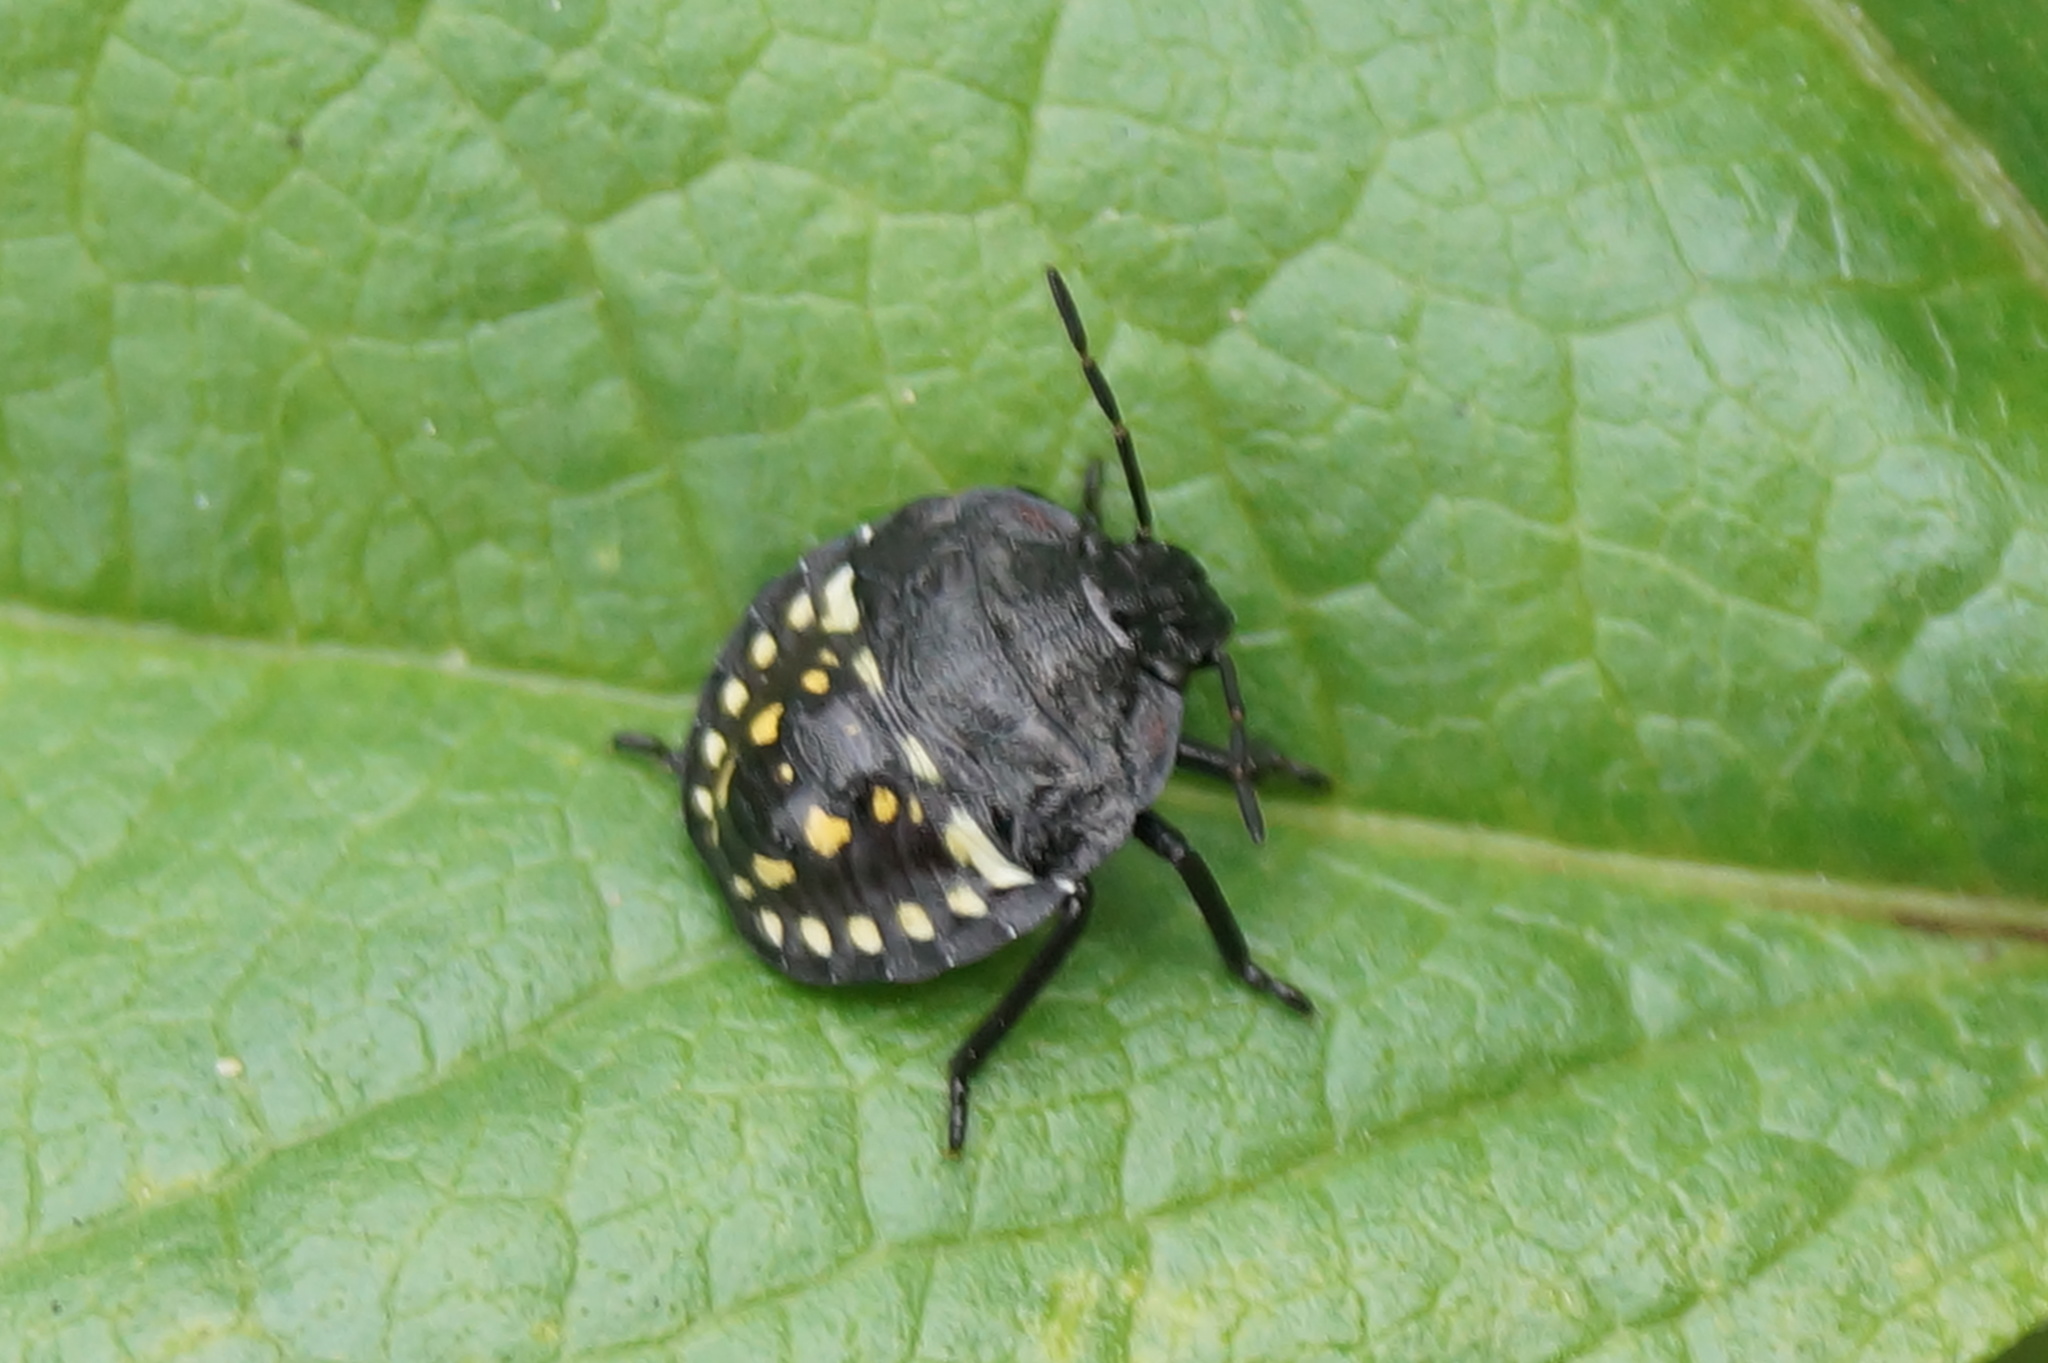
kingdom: Animalia
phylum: Arthropoda
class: Insecta
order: Hemiptera
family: Pentatomidae
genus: Nezara
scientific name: Nezara viridula
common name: Southern green stink bug
